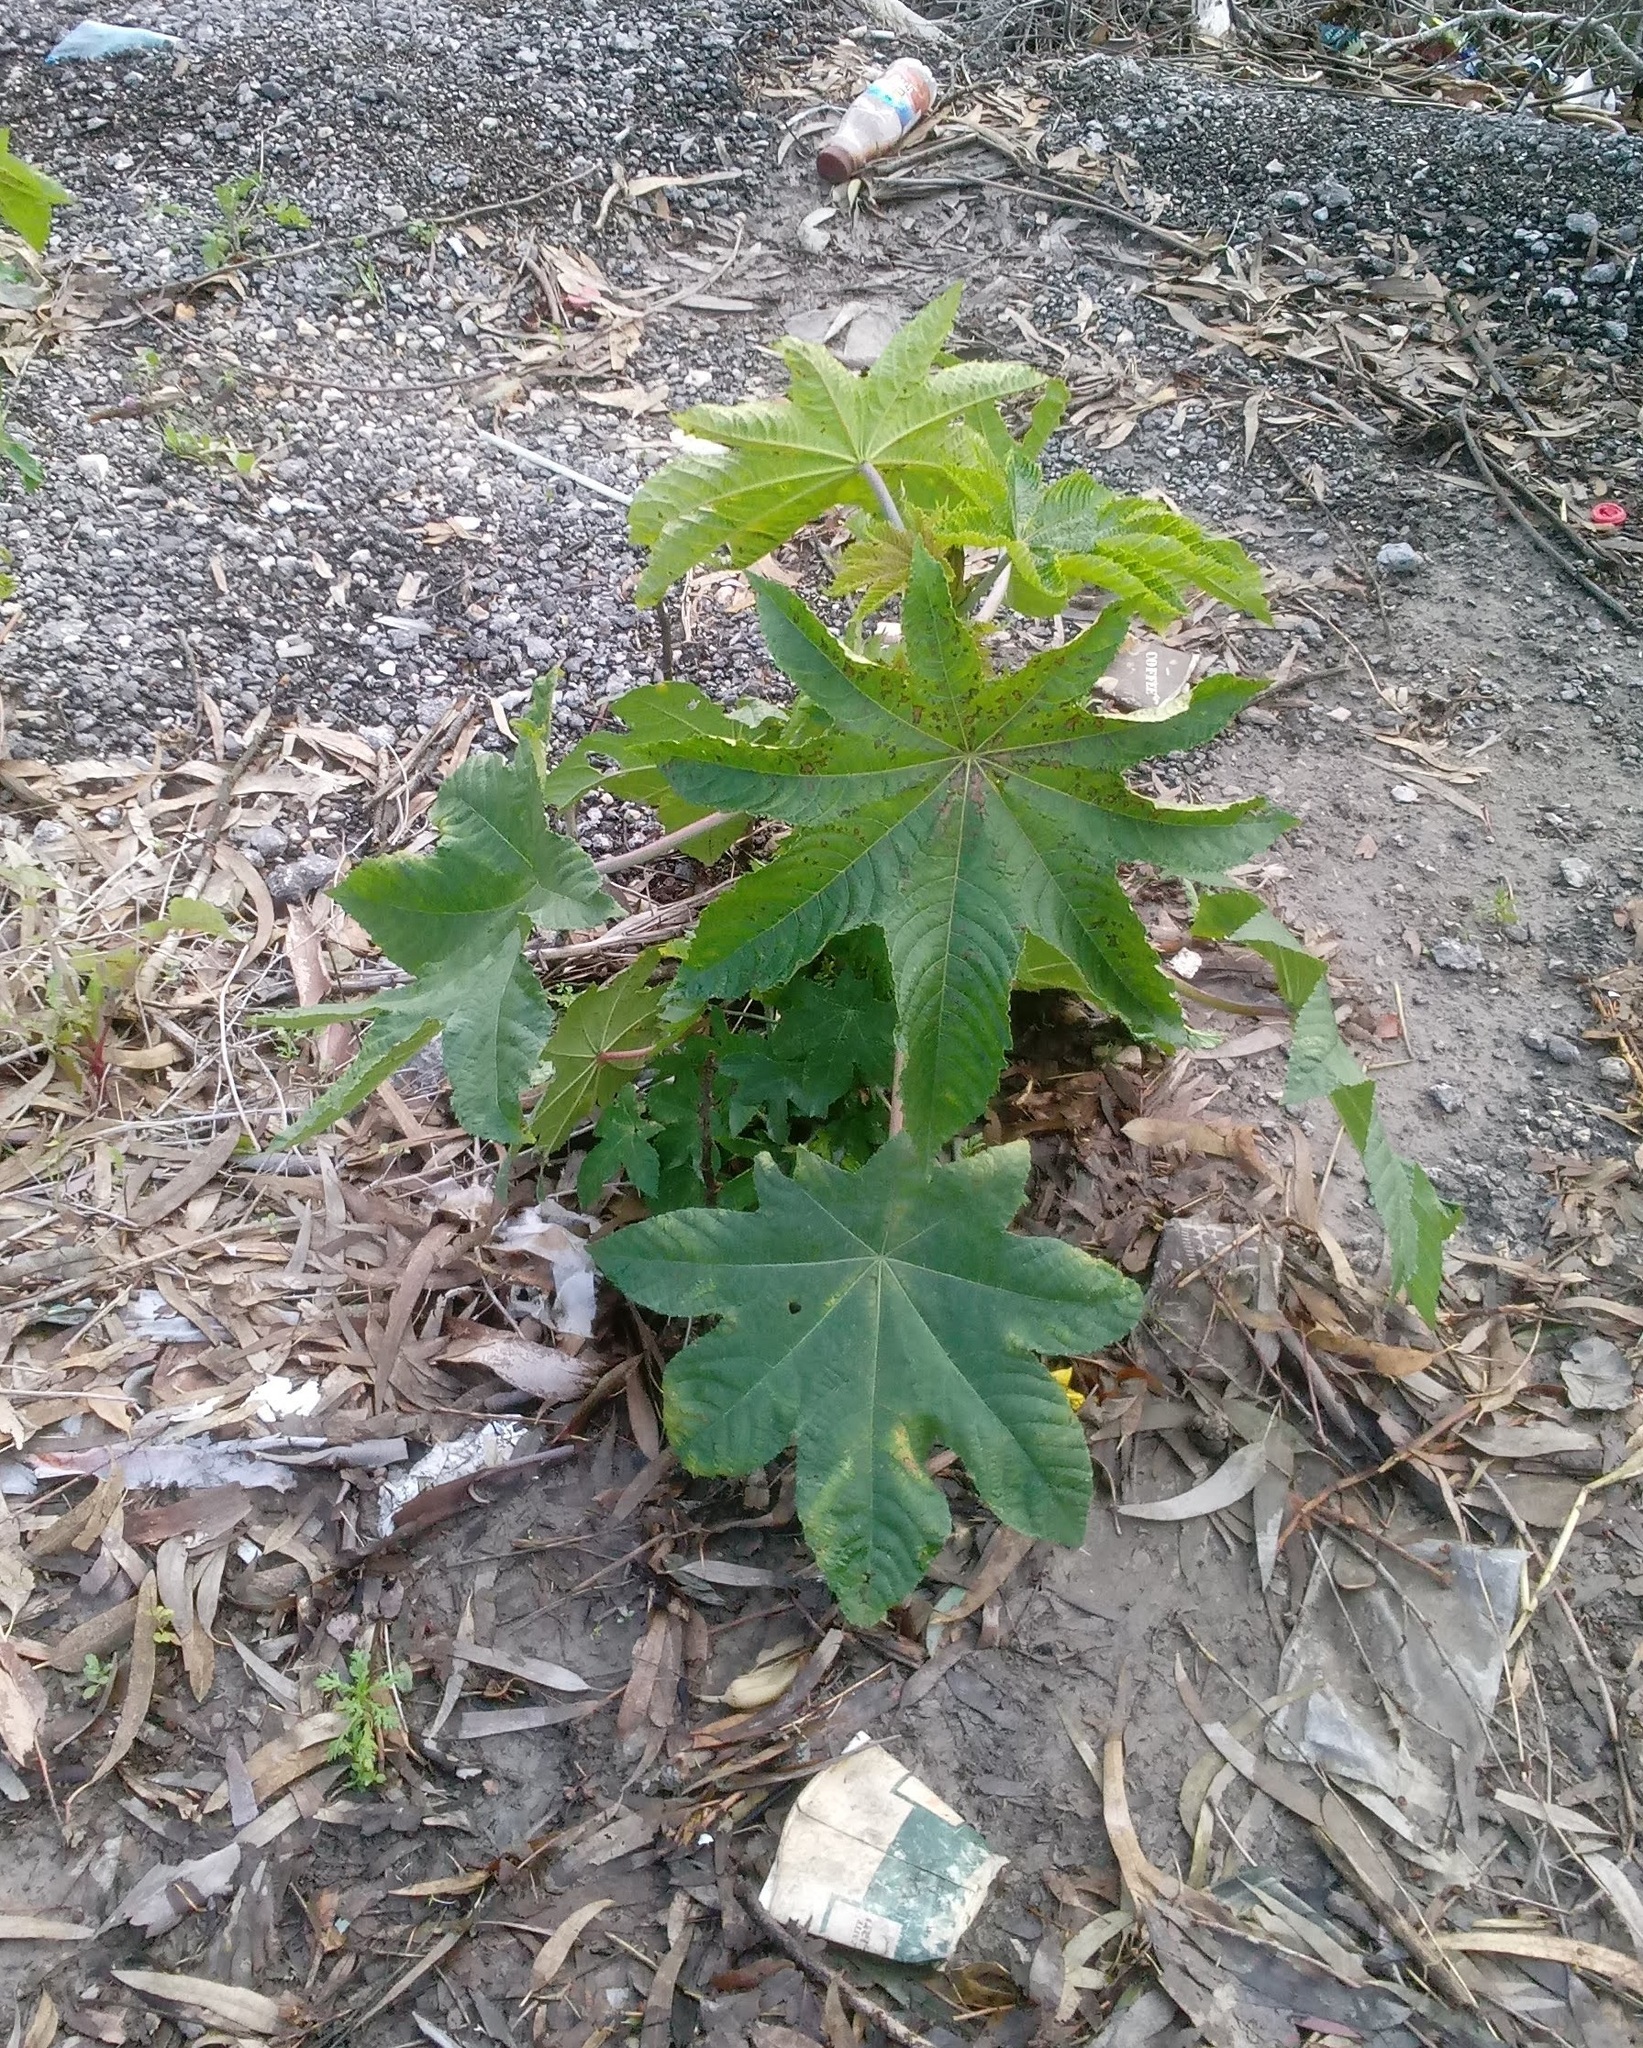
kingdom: Plantae
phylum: Tracheophyta
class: Magnoliopsida
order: Malpighiales
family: Euphorbiaceae
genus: Ricinus
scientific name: Ricinus communis
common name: Castor-oil-plant
